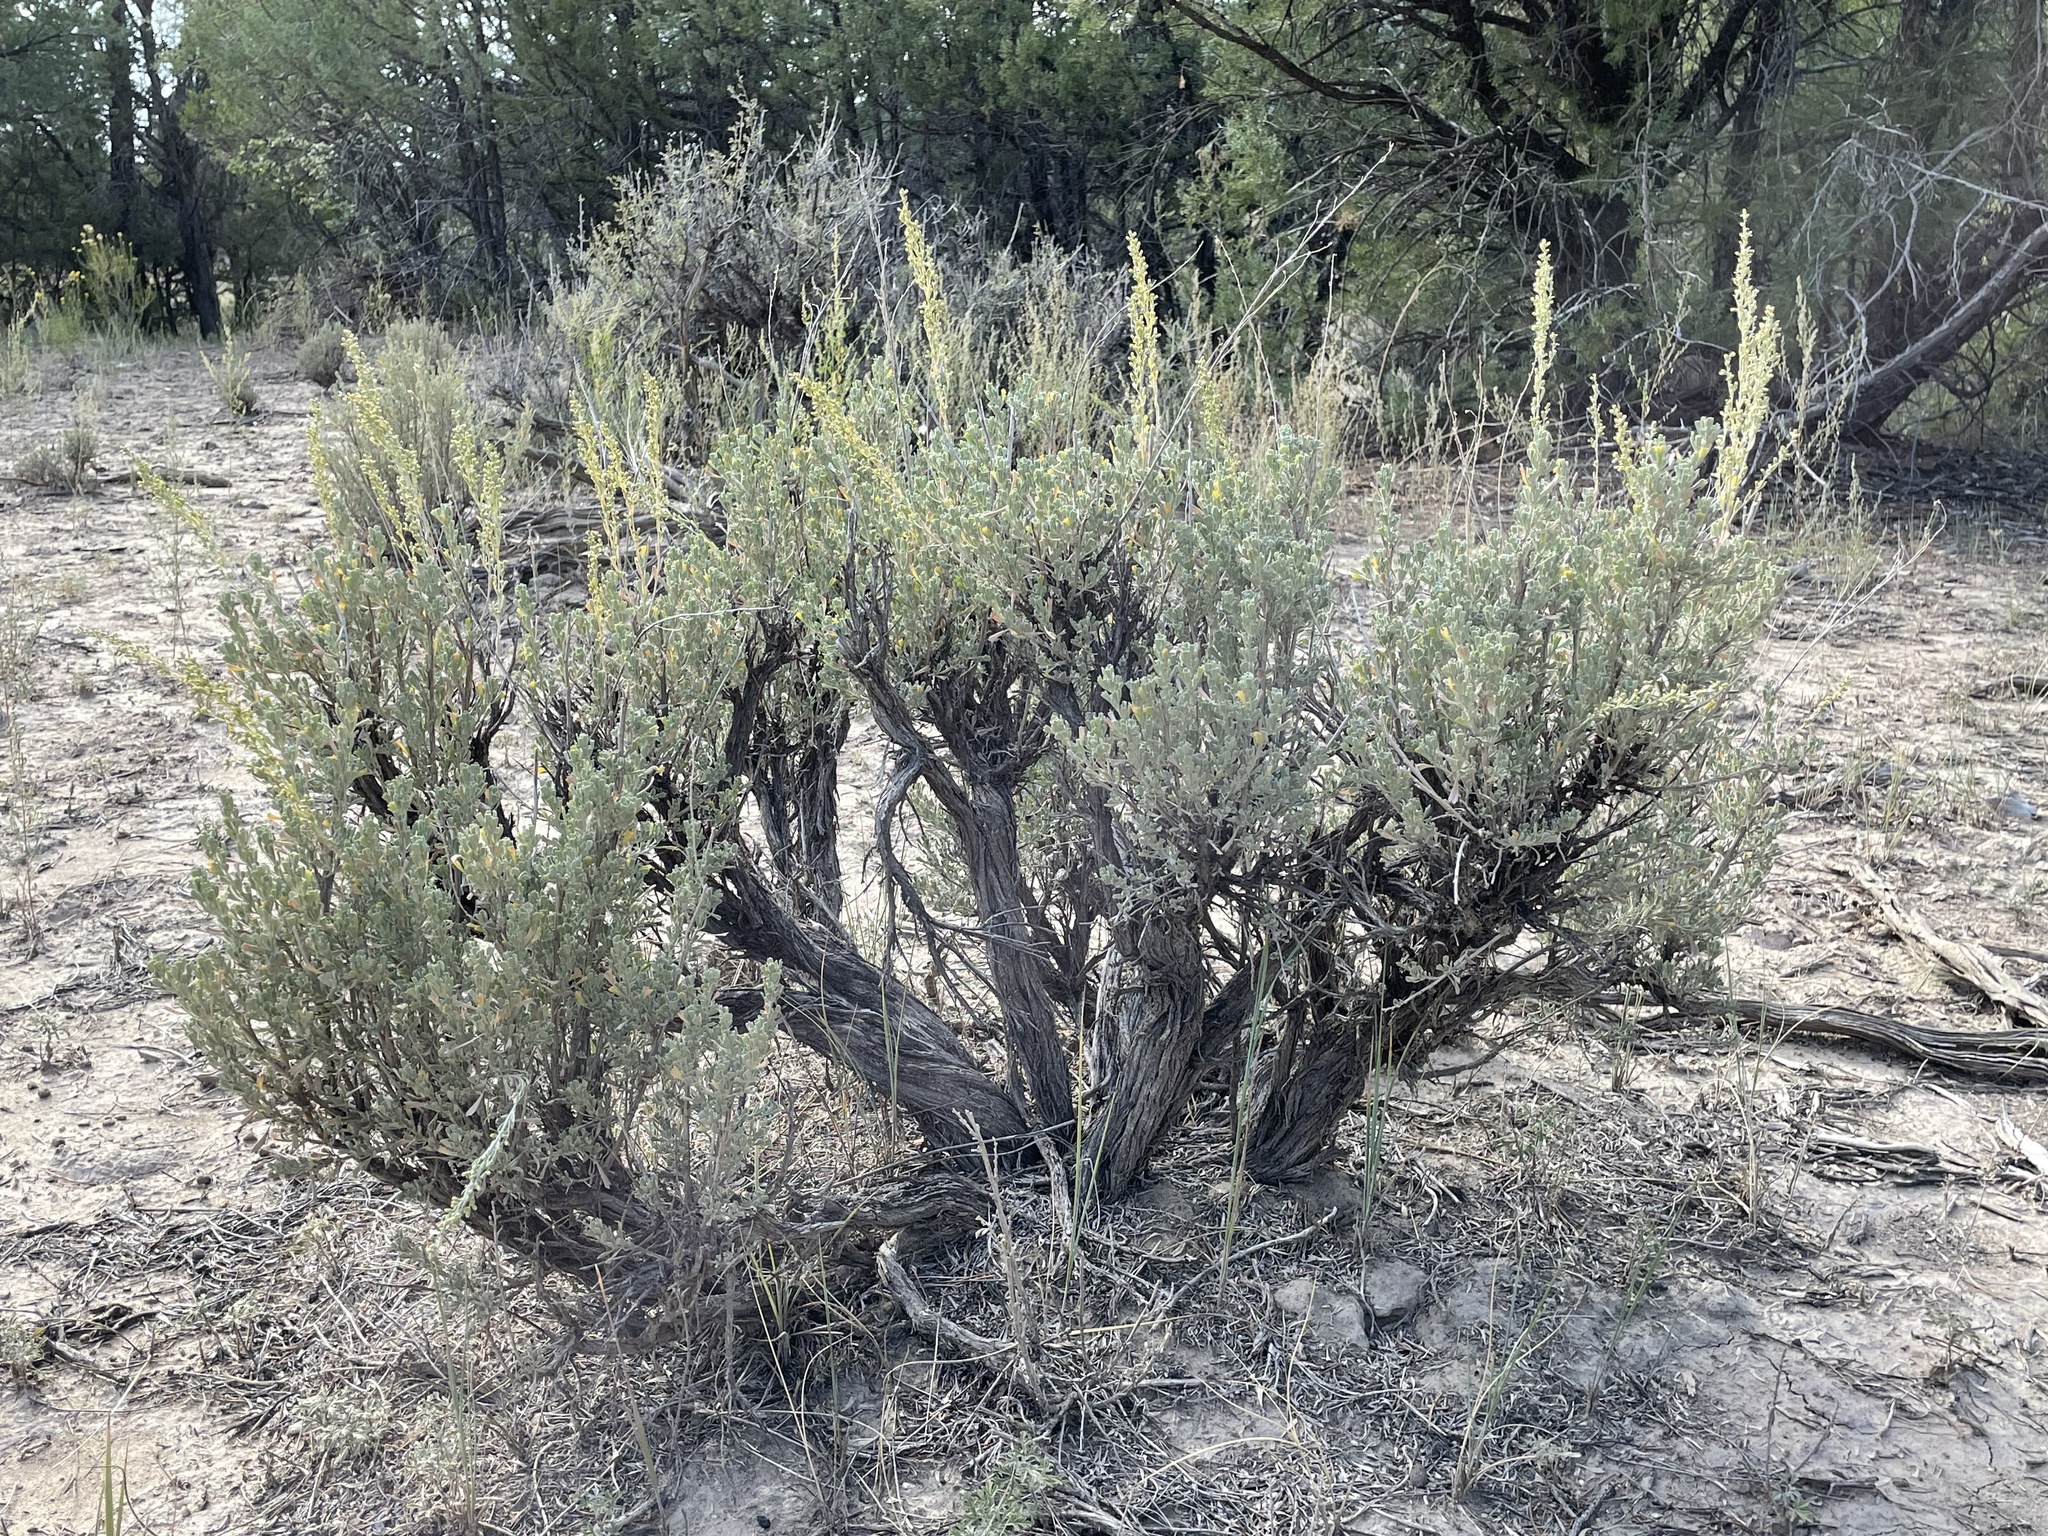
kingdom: Plantae
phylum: Tracheophyta
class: Magnoliopsida
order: Asterales
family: Asteraceae
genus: Artemisia
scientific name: Artemisia tridentata
